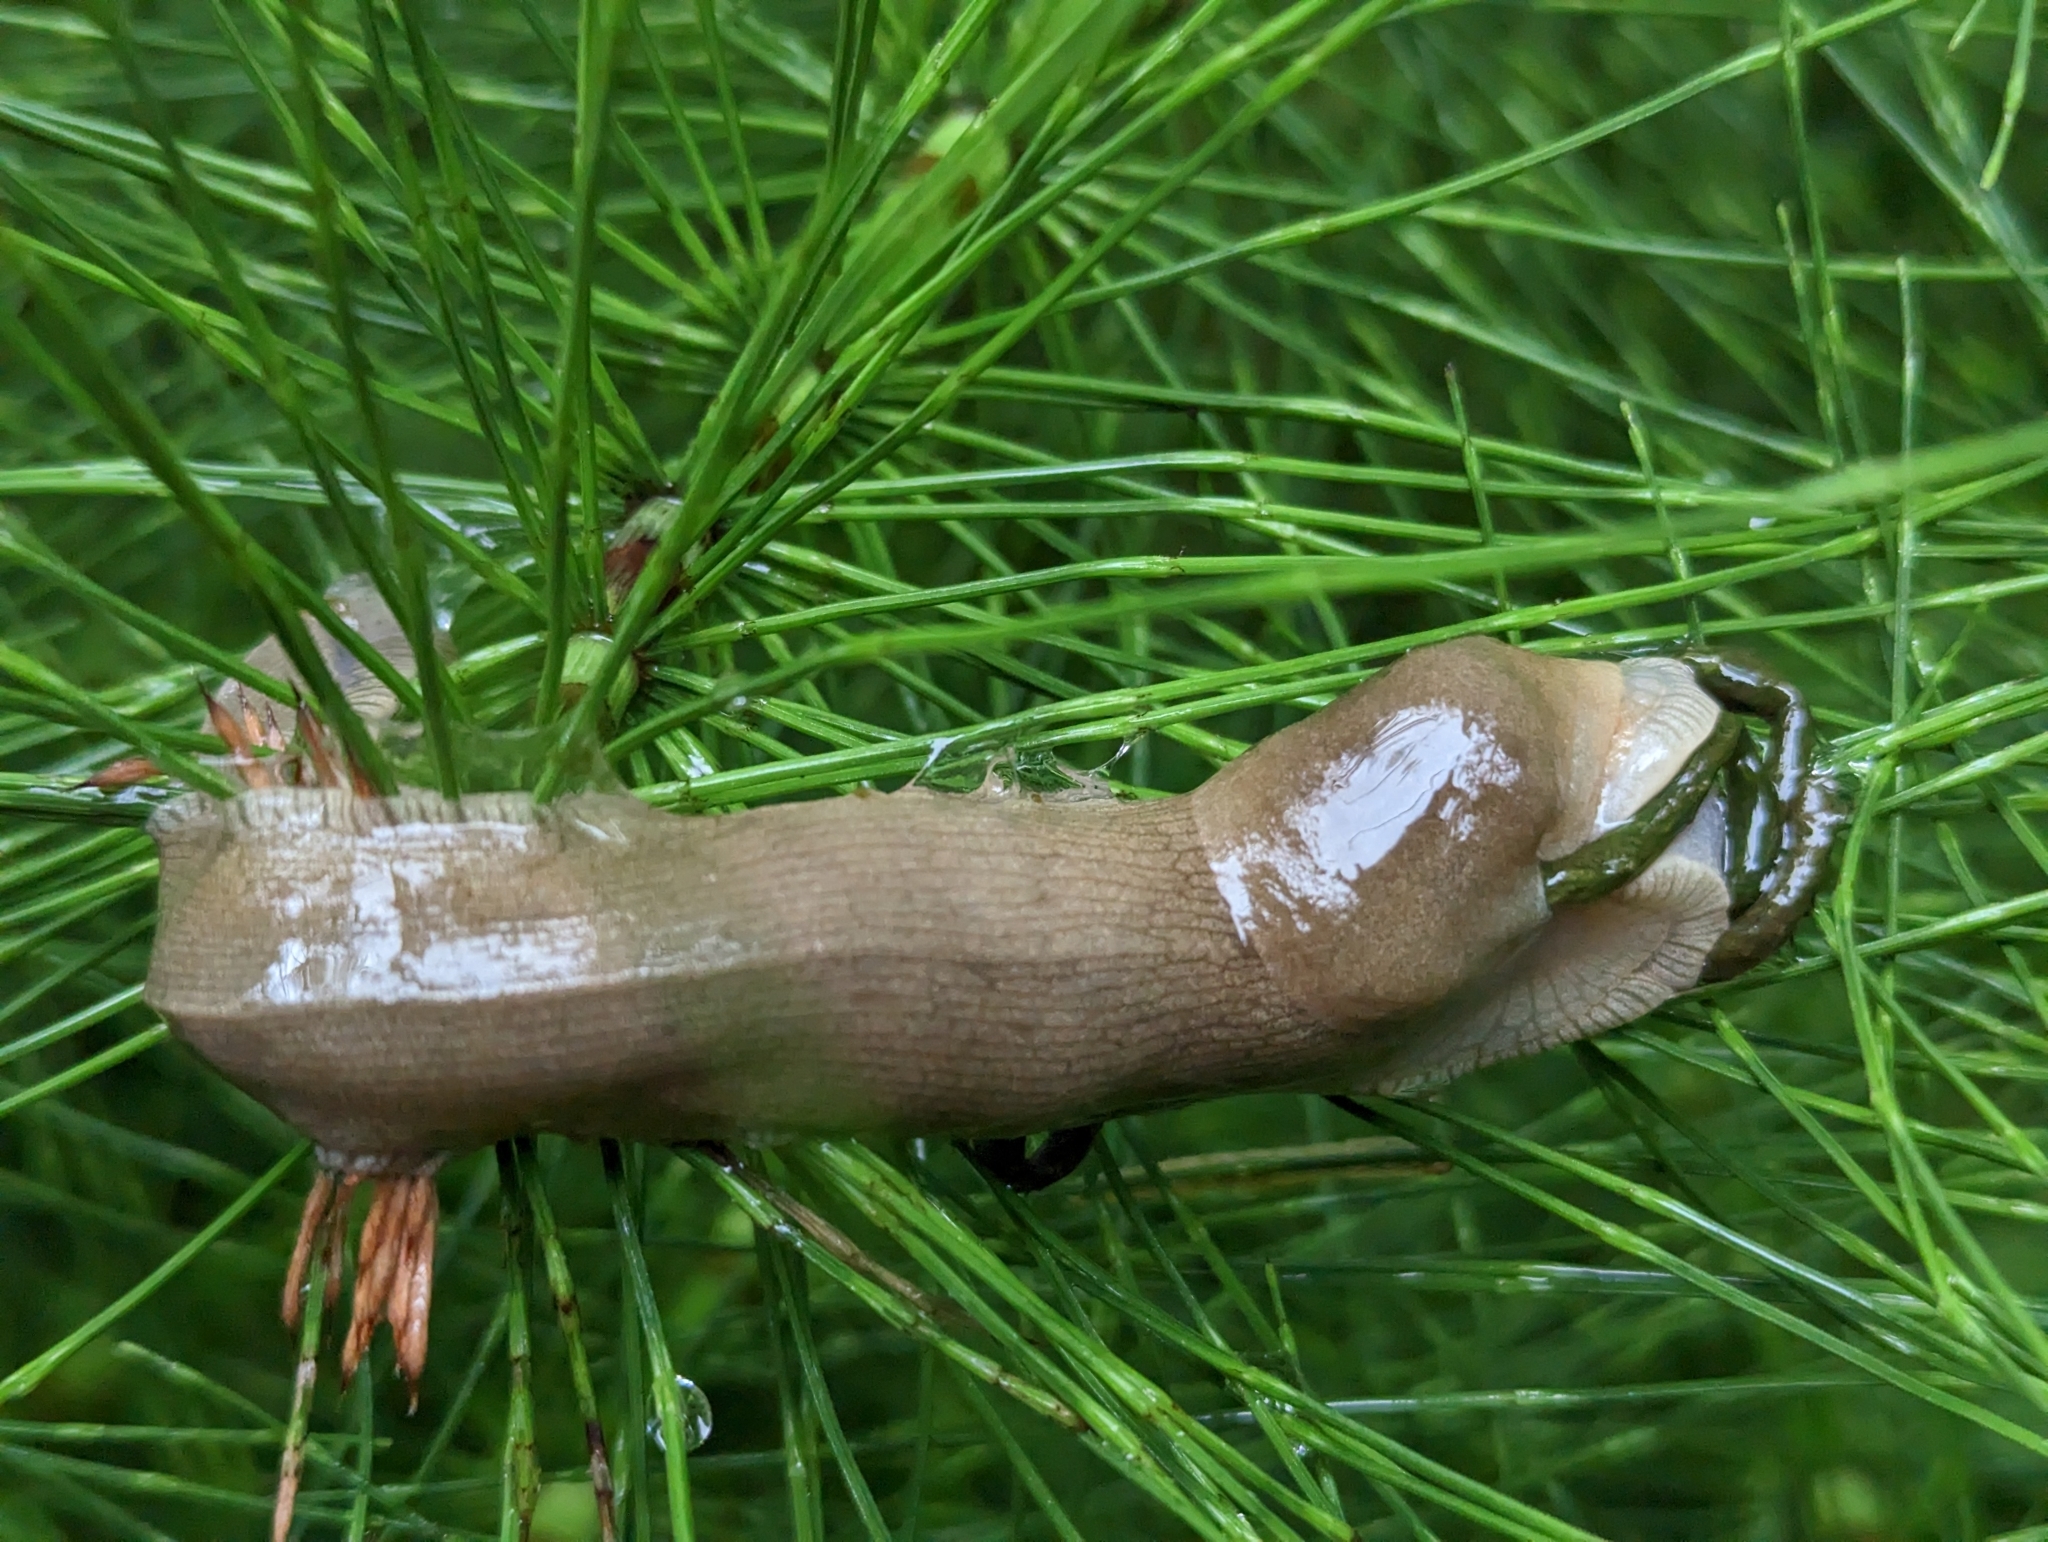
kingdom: Animalia
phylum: Mollusca
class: Gastropoda
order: Stylommatophora
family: Ariolimacidae
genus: Ariolimax
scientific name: Ariolimax columbianus
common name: Pacific banana slug
